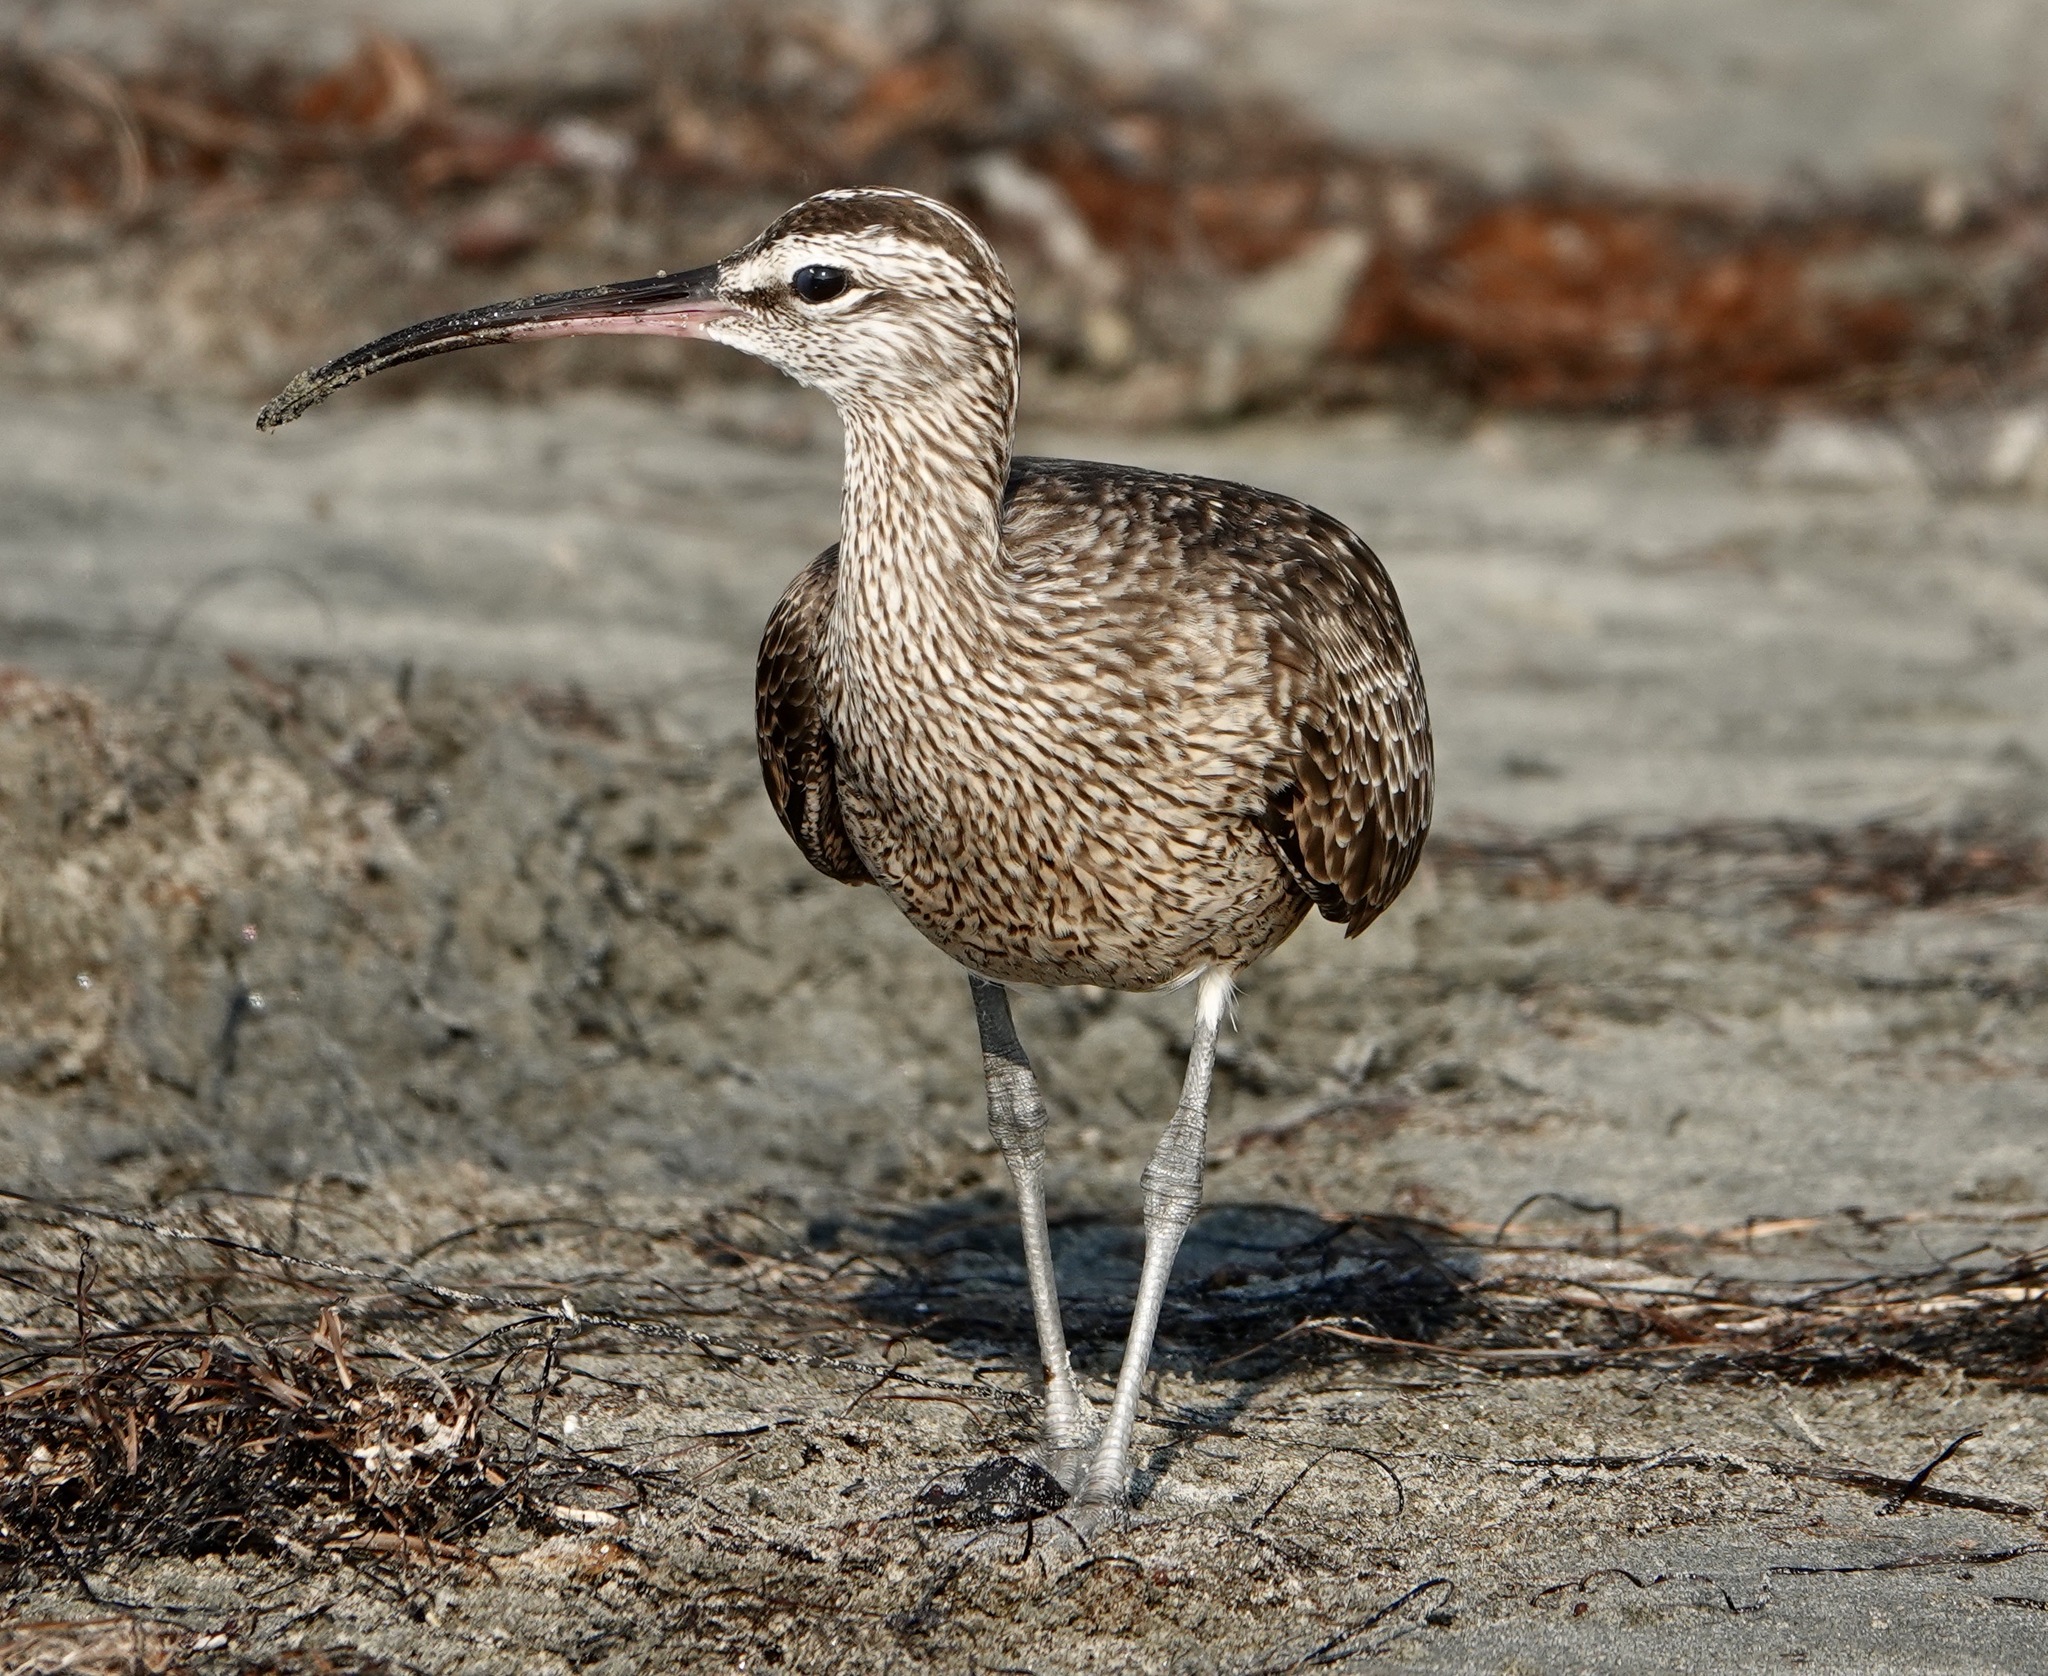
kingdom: Animalia
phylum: Chordata
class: Aves
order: Charadriiformes
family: Scolopacidae
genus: Numenius
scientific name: Numenius hudsonicus
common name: Hudsonian whimbrel
